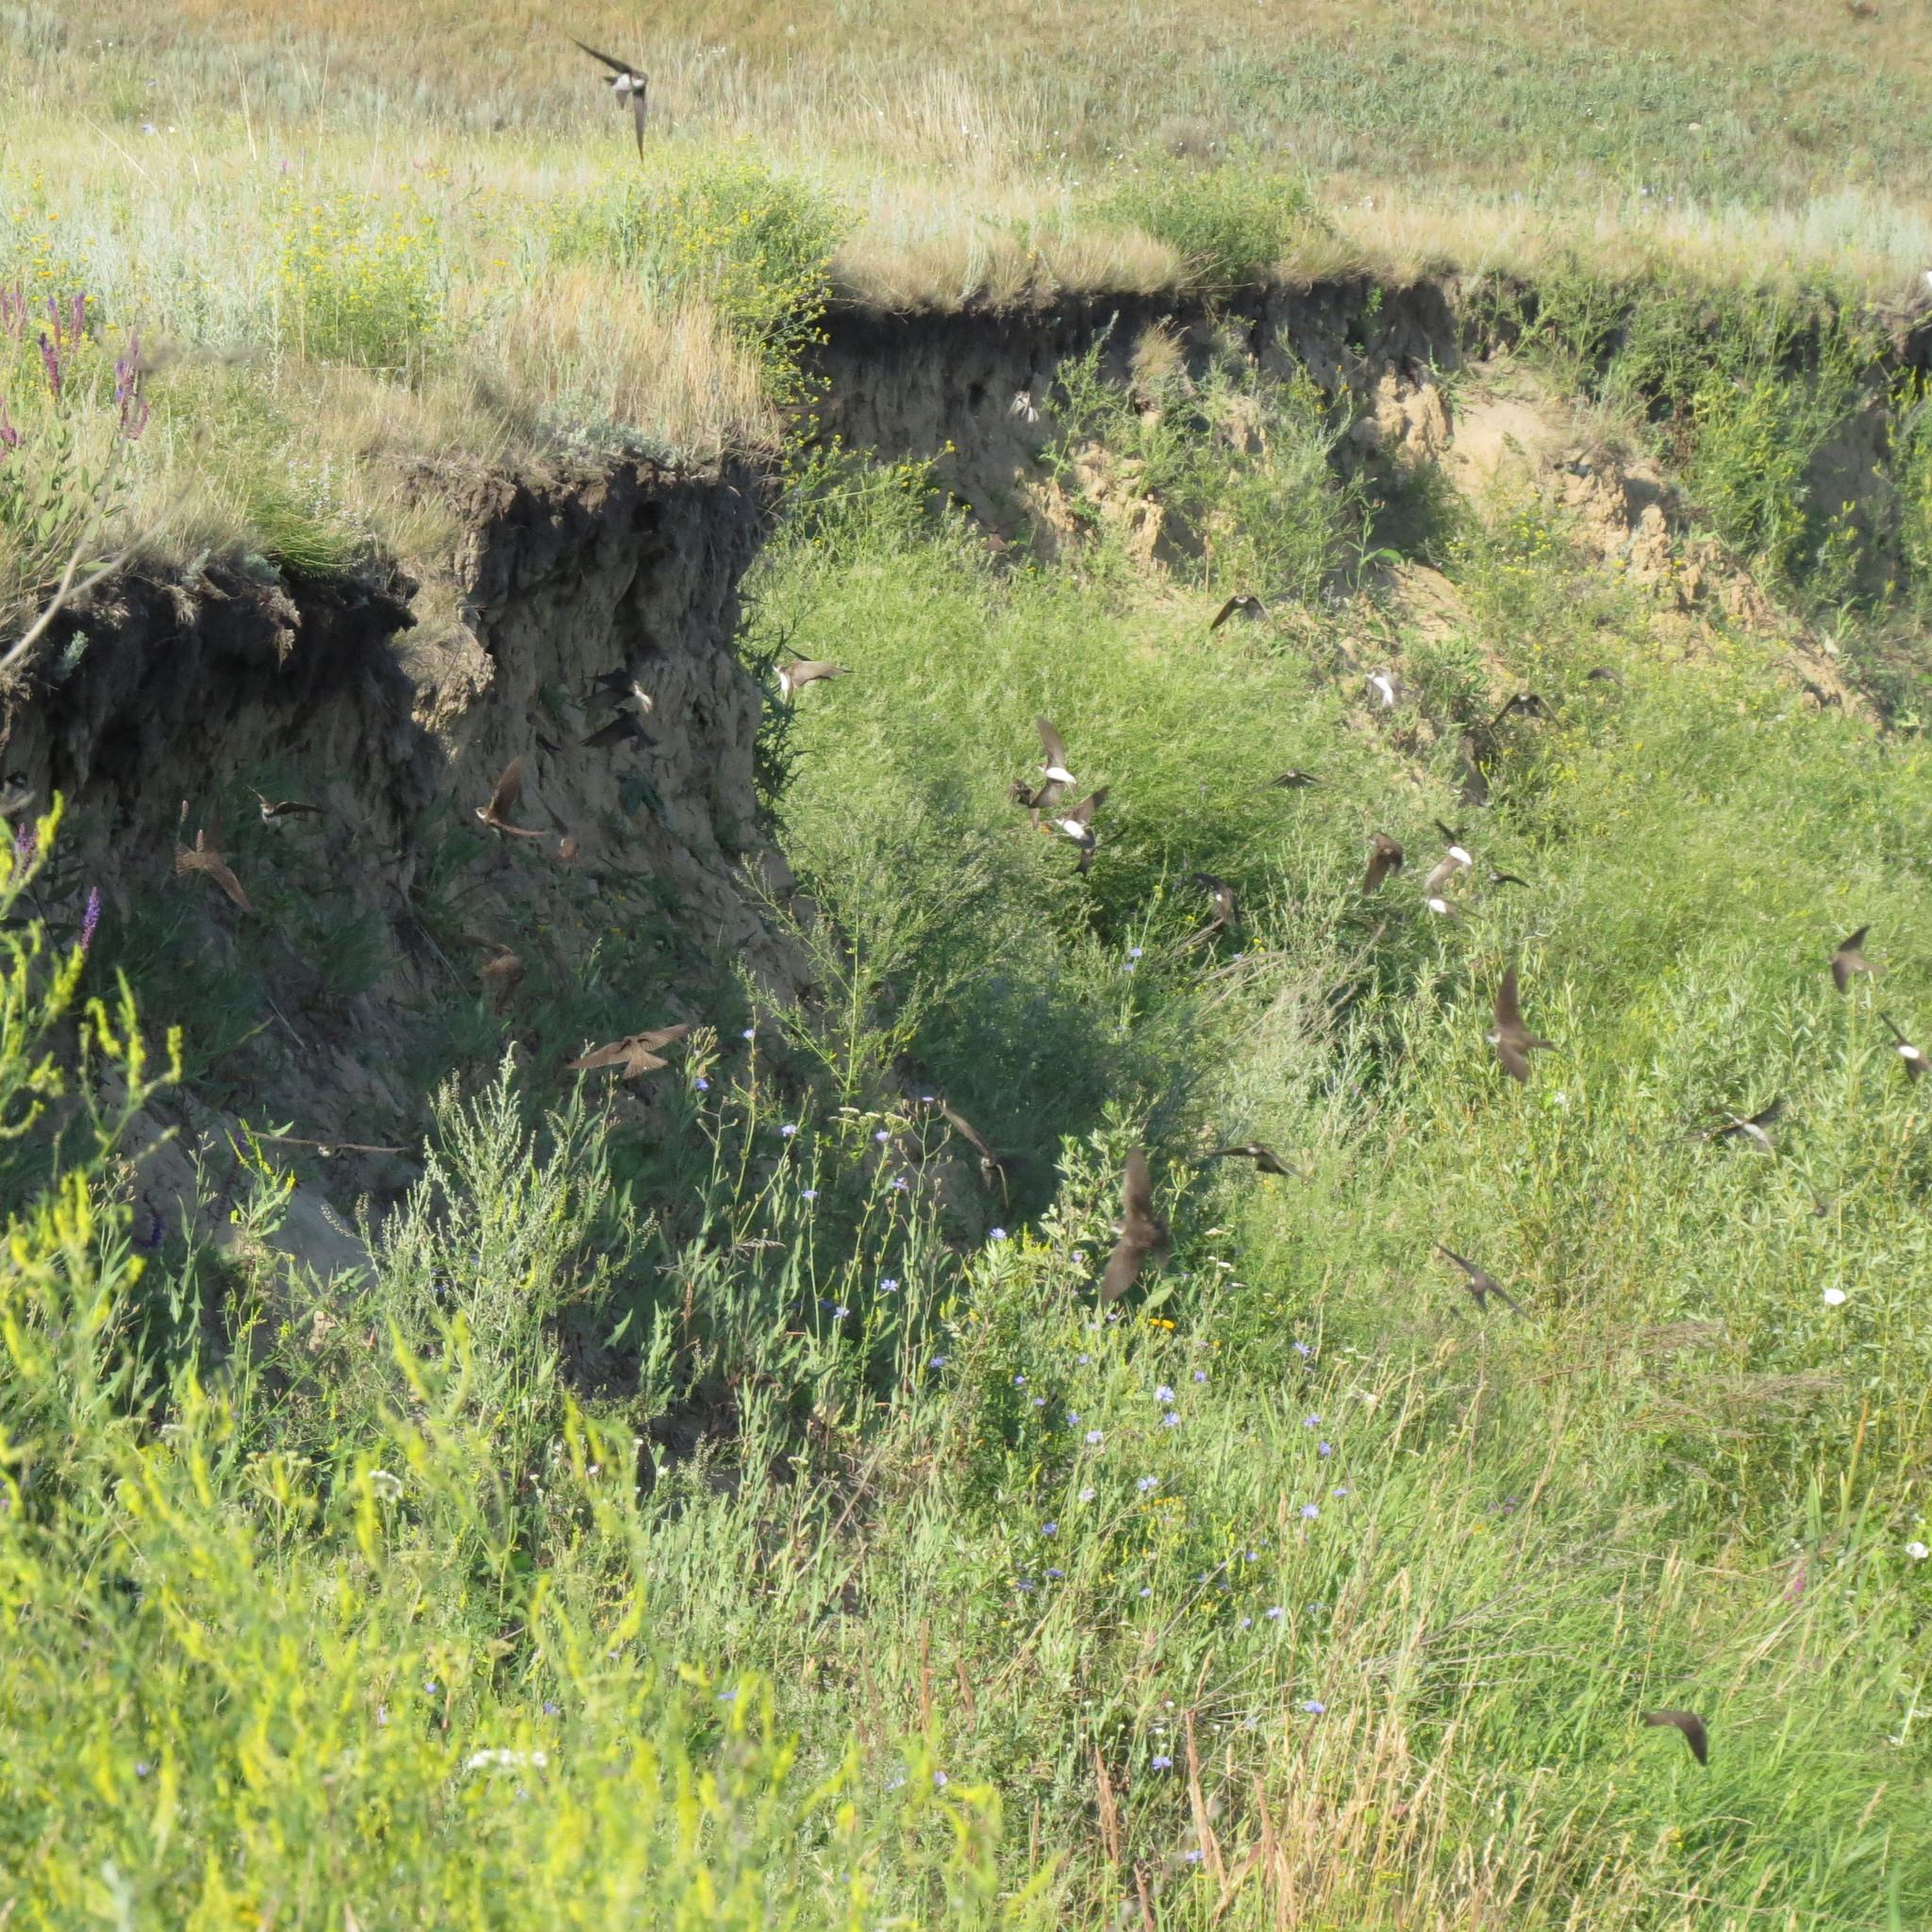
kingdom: Animalia
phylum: Chordata
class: Aves
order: Passeriformes
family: Hirundinidae
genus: Riparia
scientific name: Riparia riparia
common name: Sand martin
